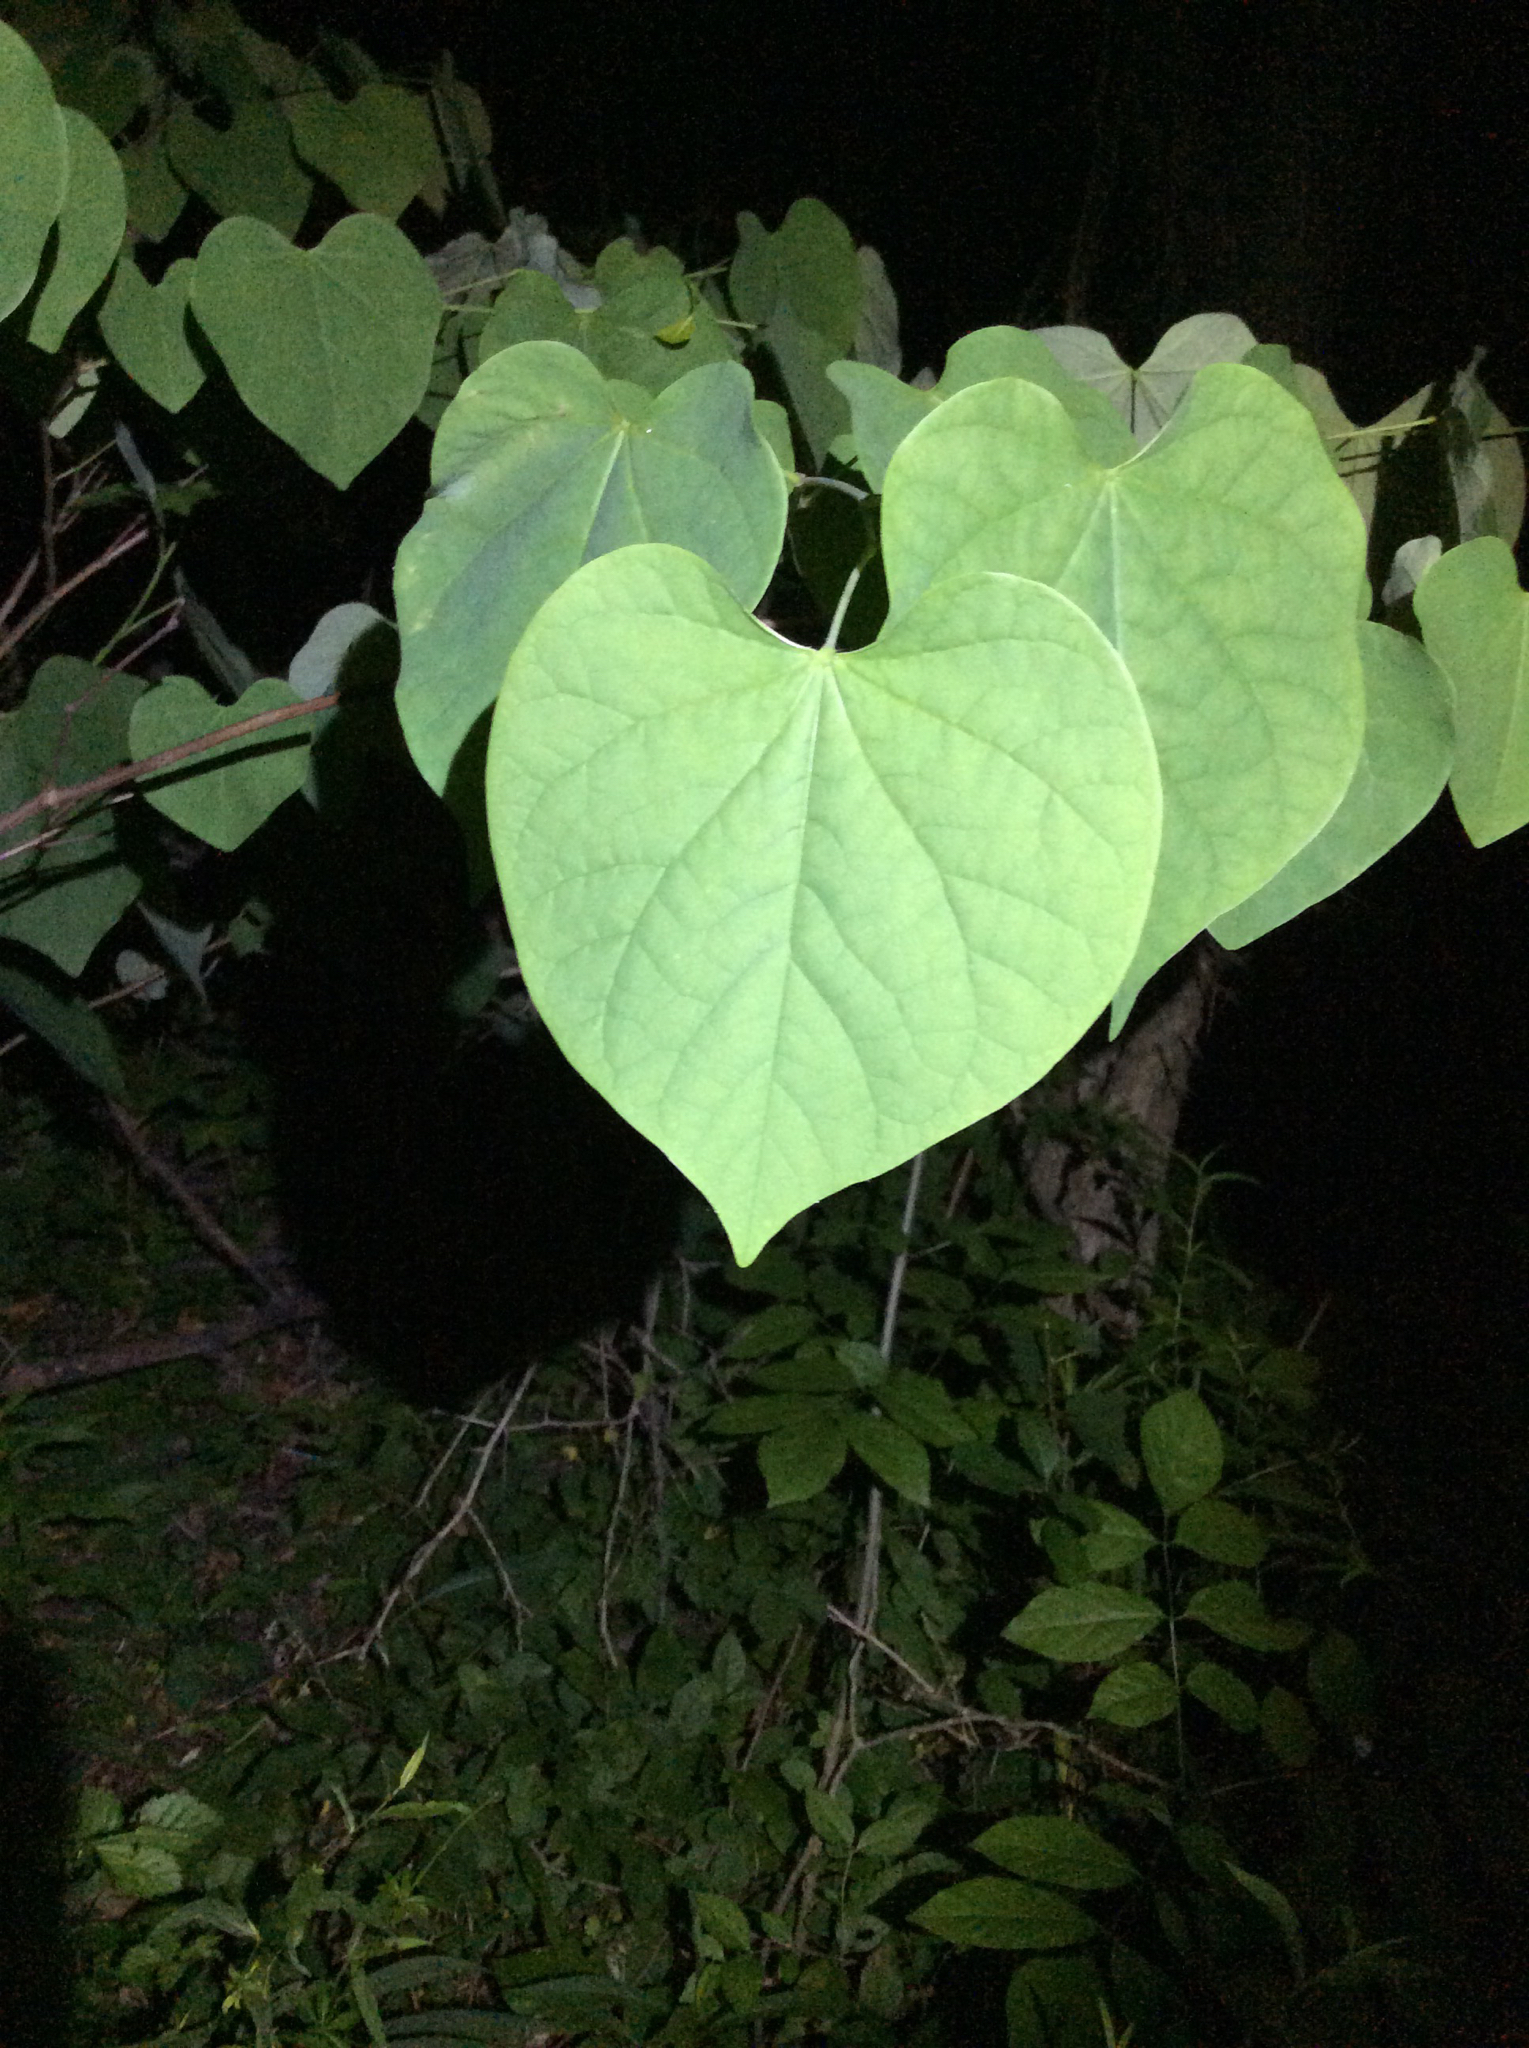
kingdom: Plantae
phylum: Tracheophyta
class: Magnoliopsida
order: Fabales
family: Fabaceae
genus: Cercis
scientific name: Cercis canadensis
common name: Eastern redbud
